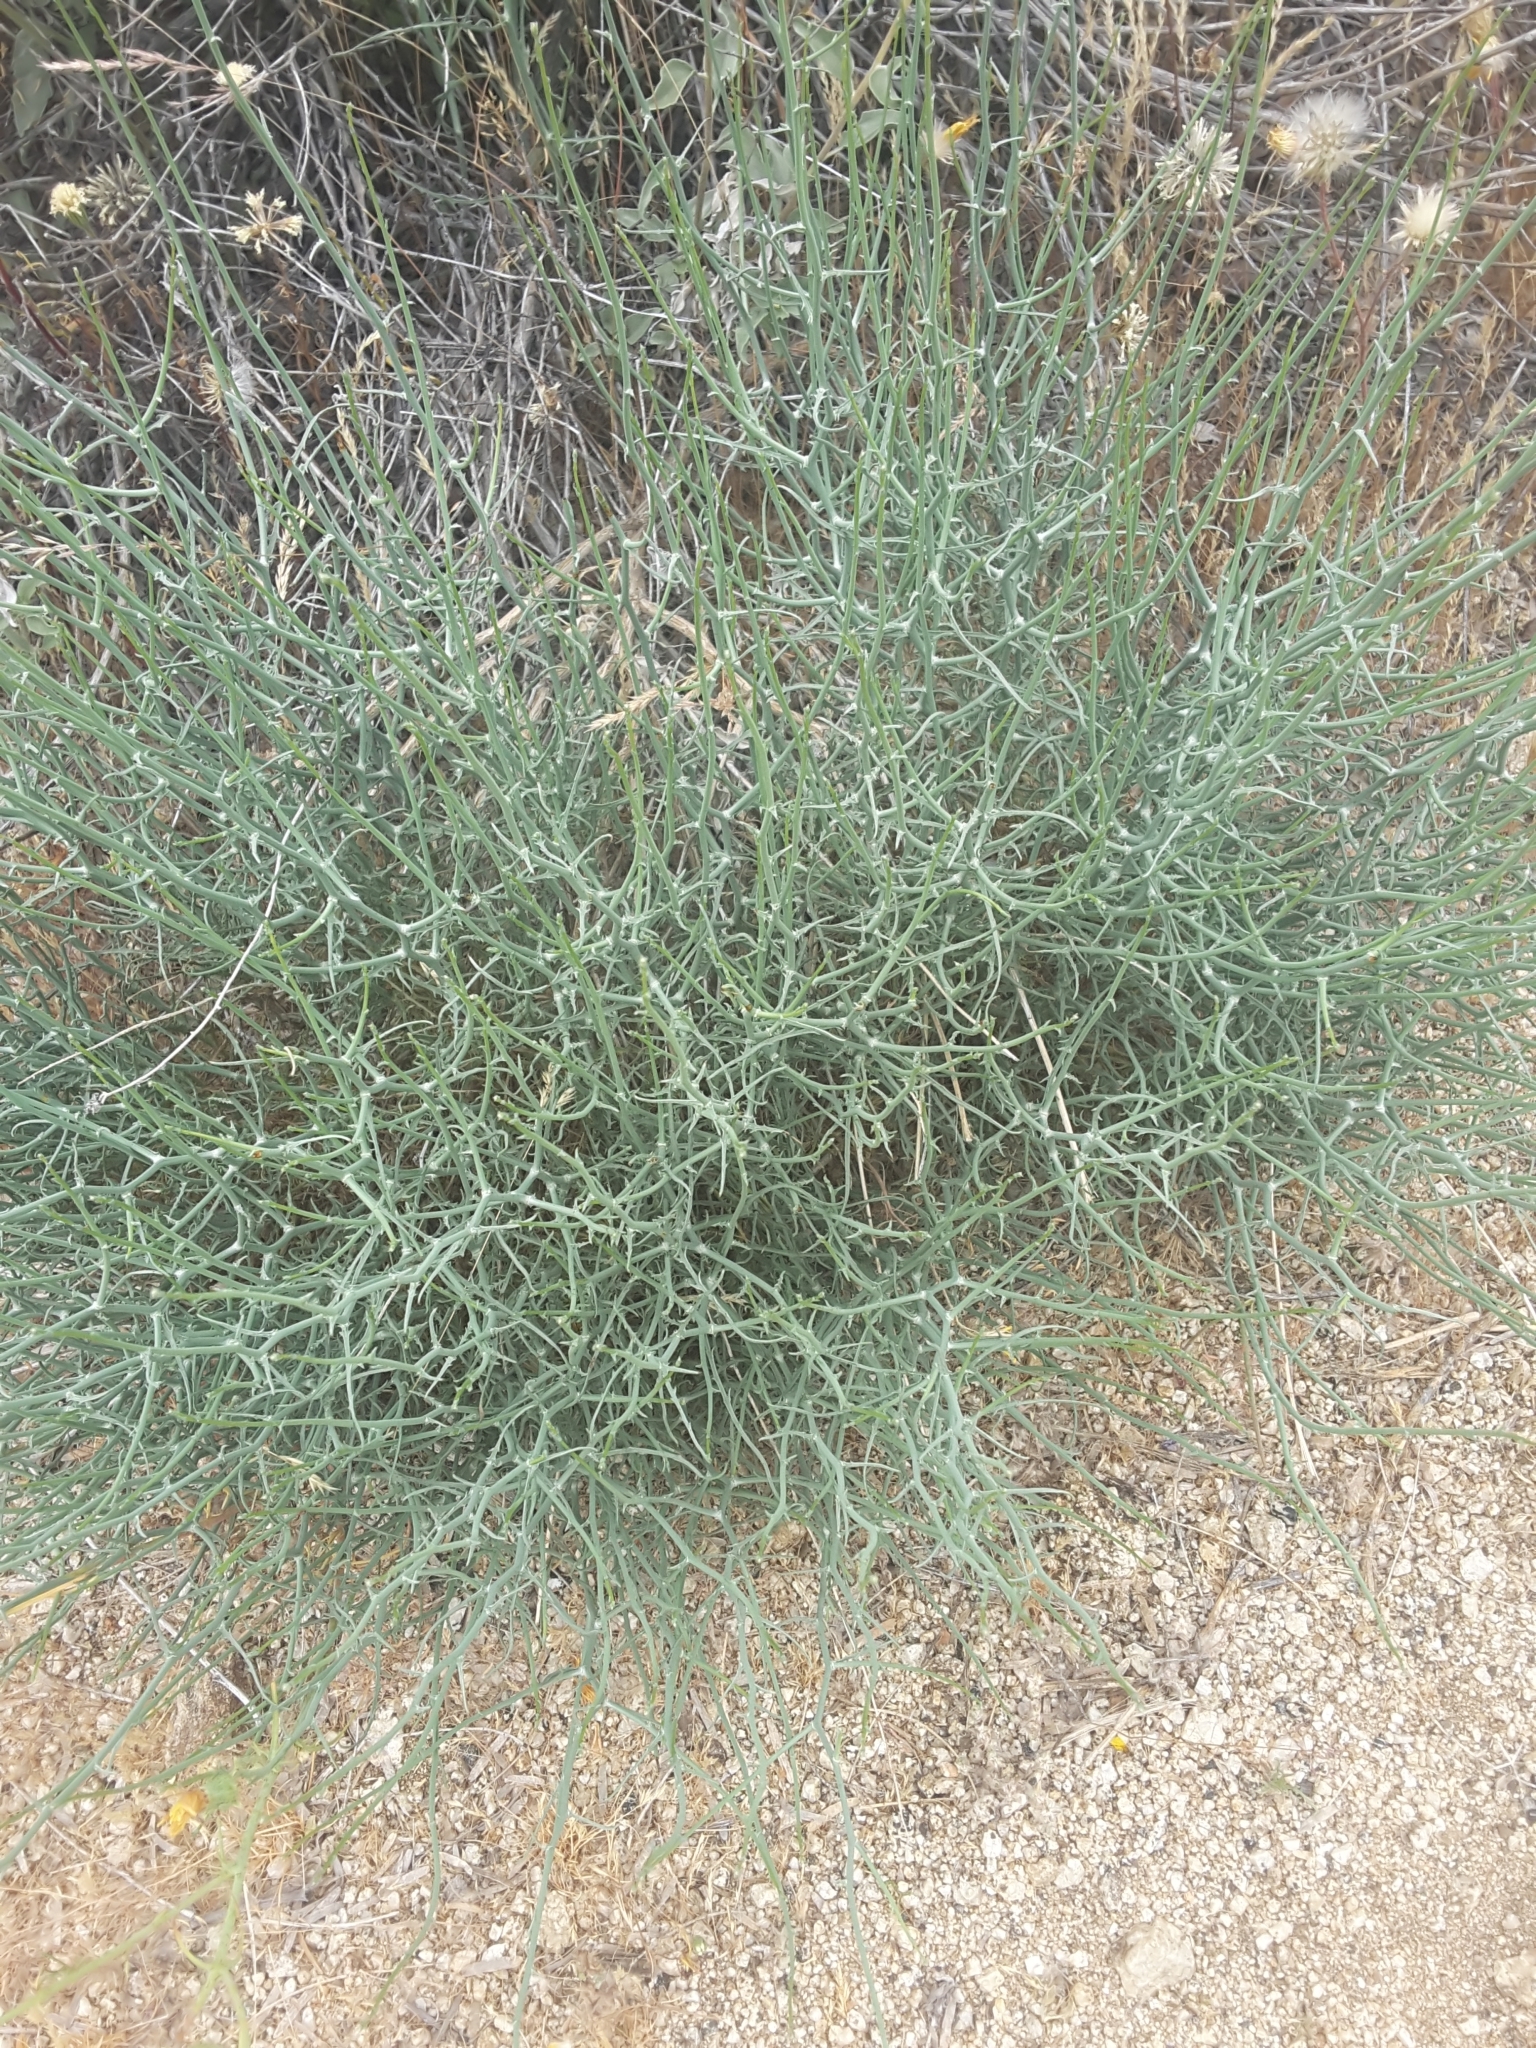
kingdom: Plantae
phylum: Tracheophyta
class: Magnoliopsida
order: Asterales
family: Asteraceae
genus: Stephanomeria
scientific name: Stephanomeria pauciflora
